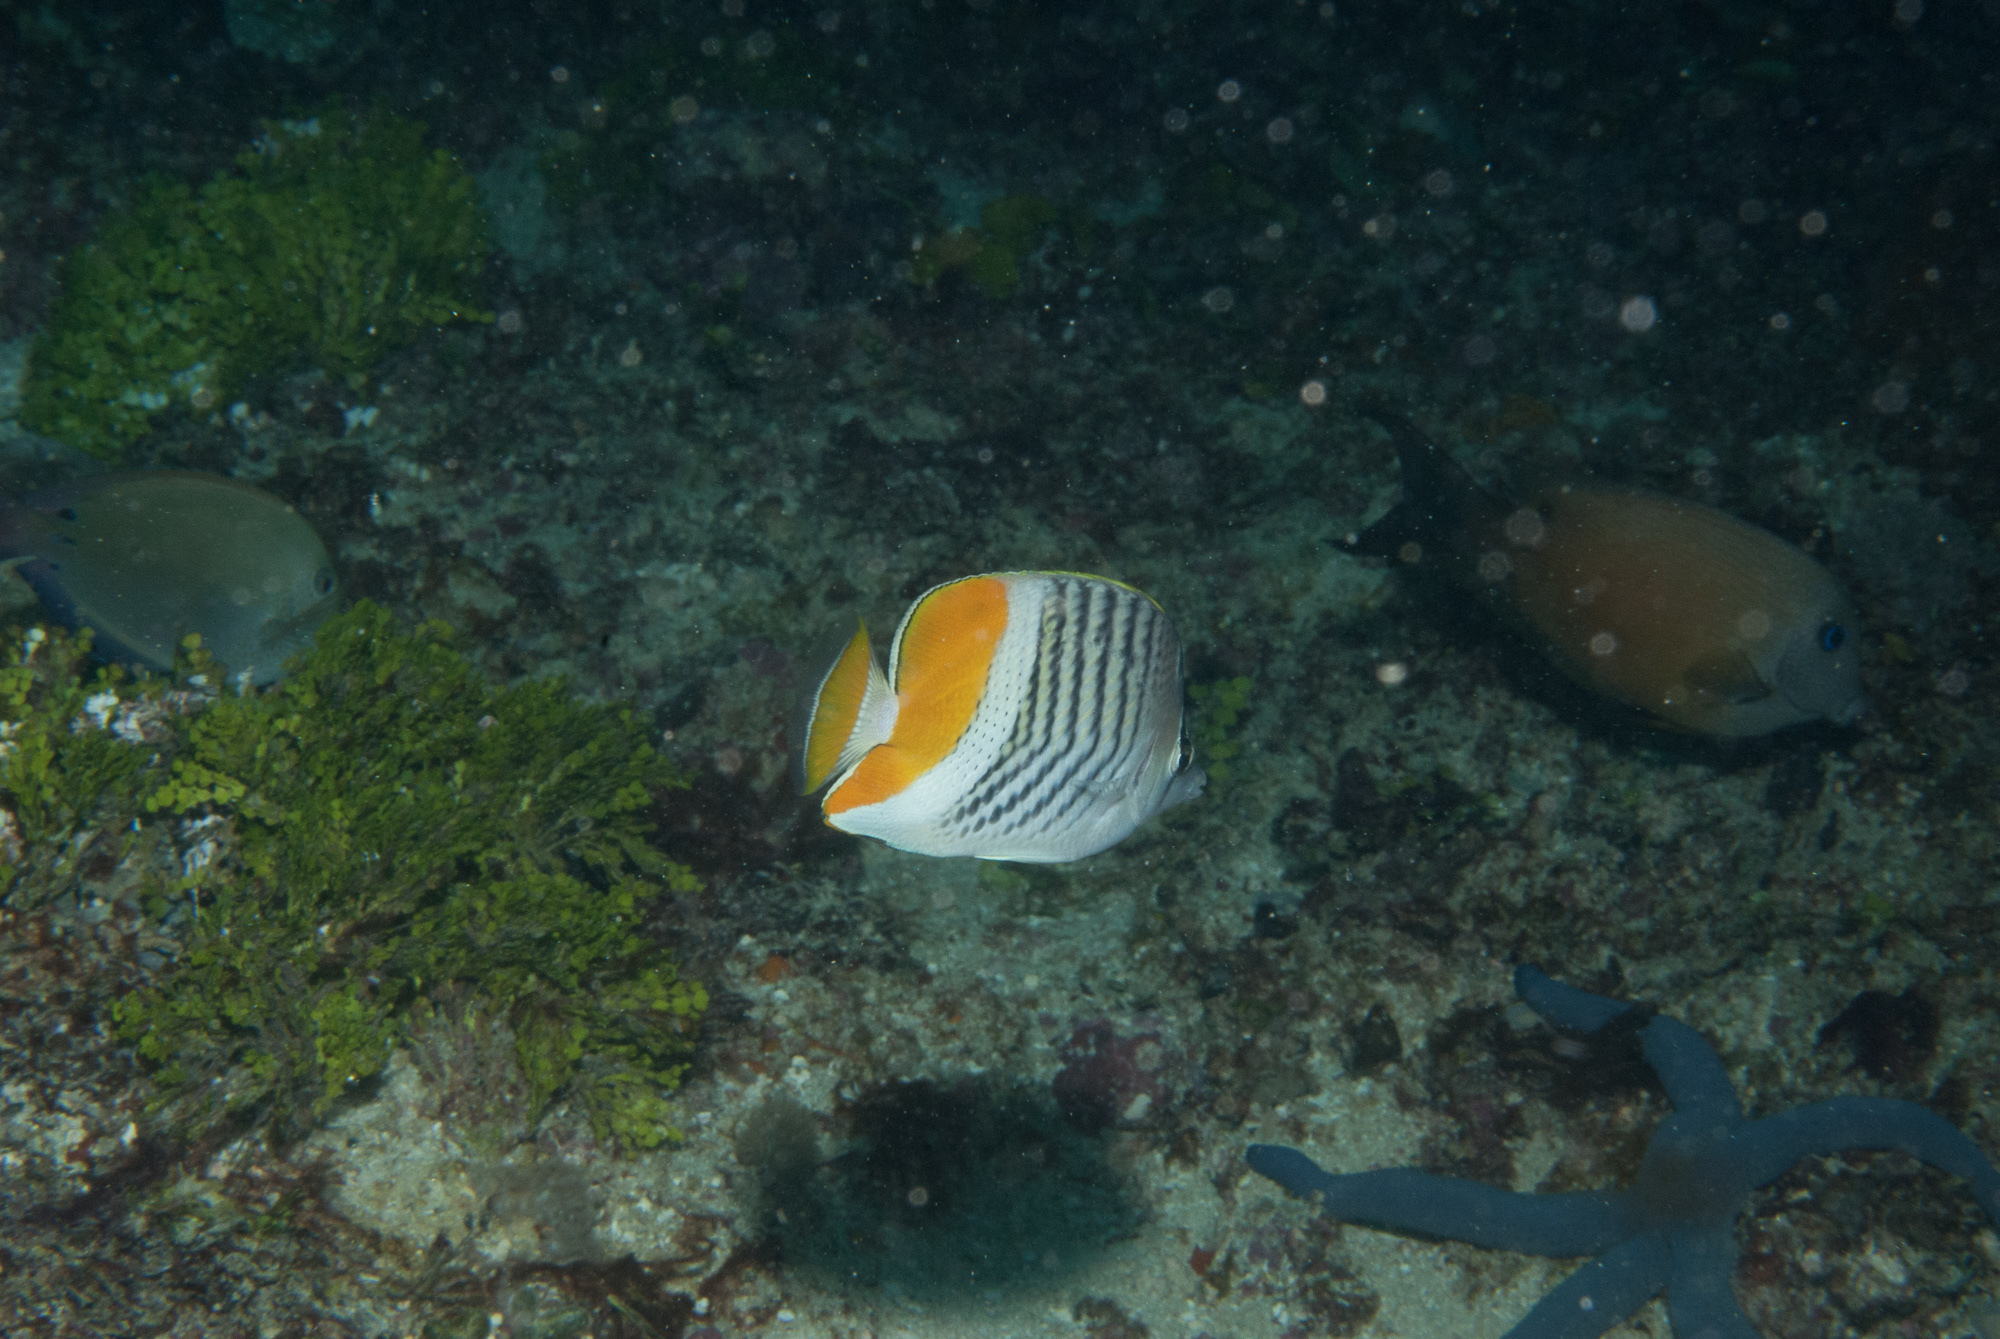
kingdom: Animalia
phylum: Chordata
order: Perciformes
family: Chaetodontidae
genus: Chaetodon
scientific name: Chaetodon madagaskariensis
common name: Madagascar butterflyfish
